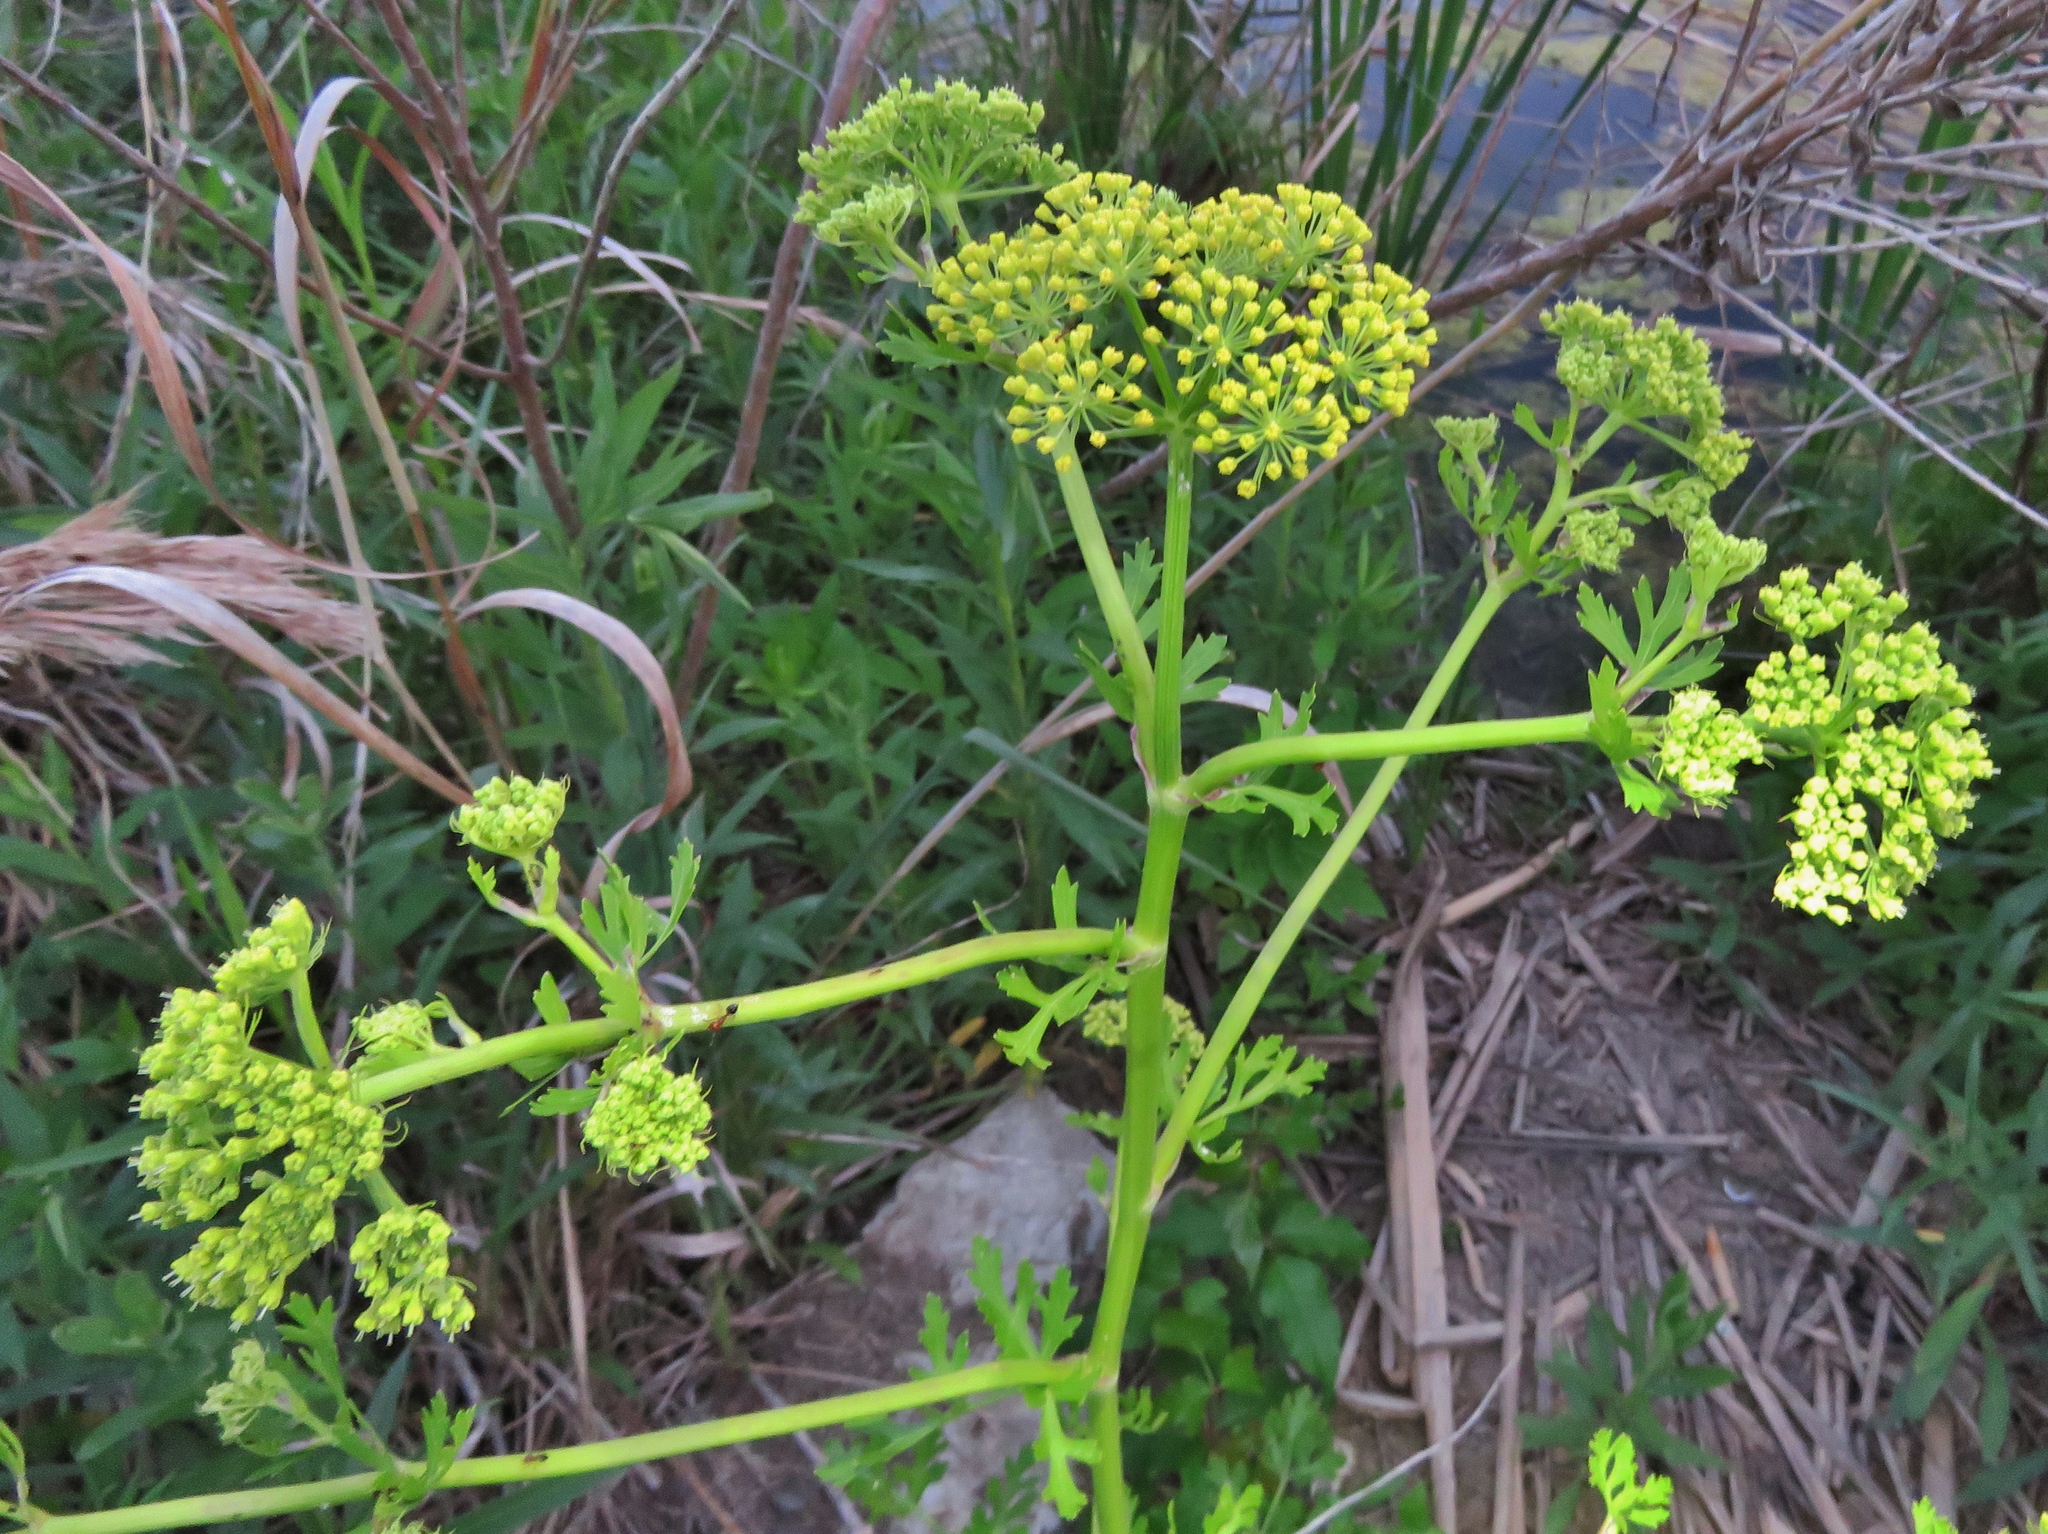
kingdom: Plantae
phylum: Tracheophyta
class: Magnoliopsida
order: Apiales
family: Apiaceae
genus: Polytaenia
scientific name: Polytaenia texana
